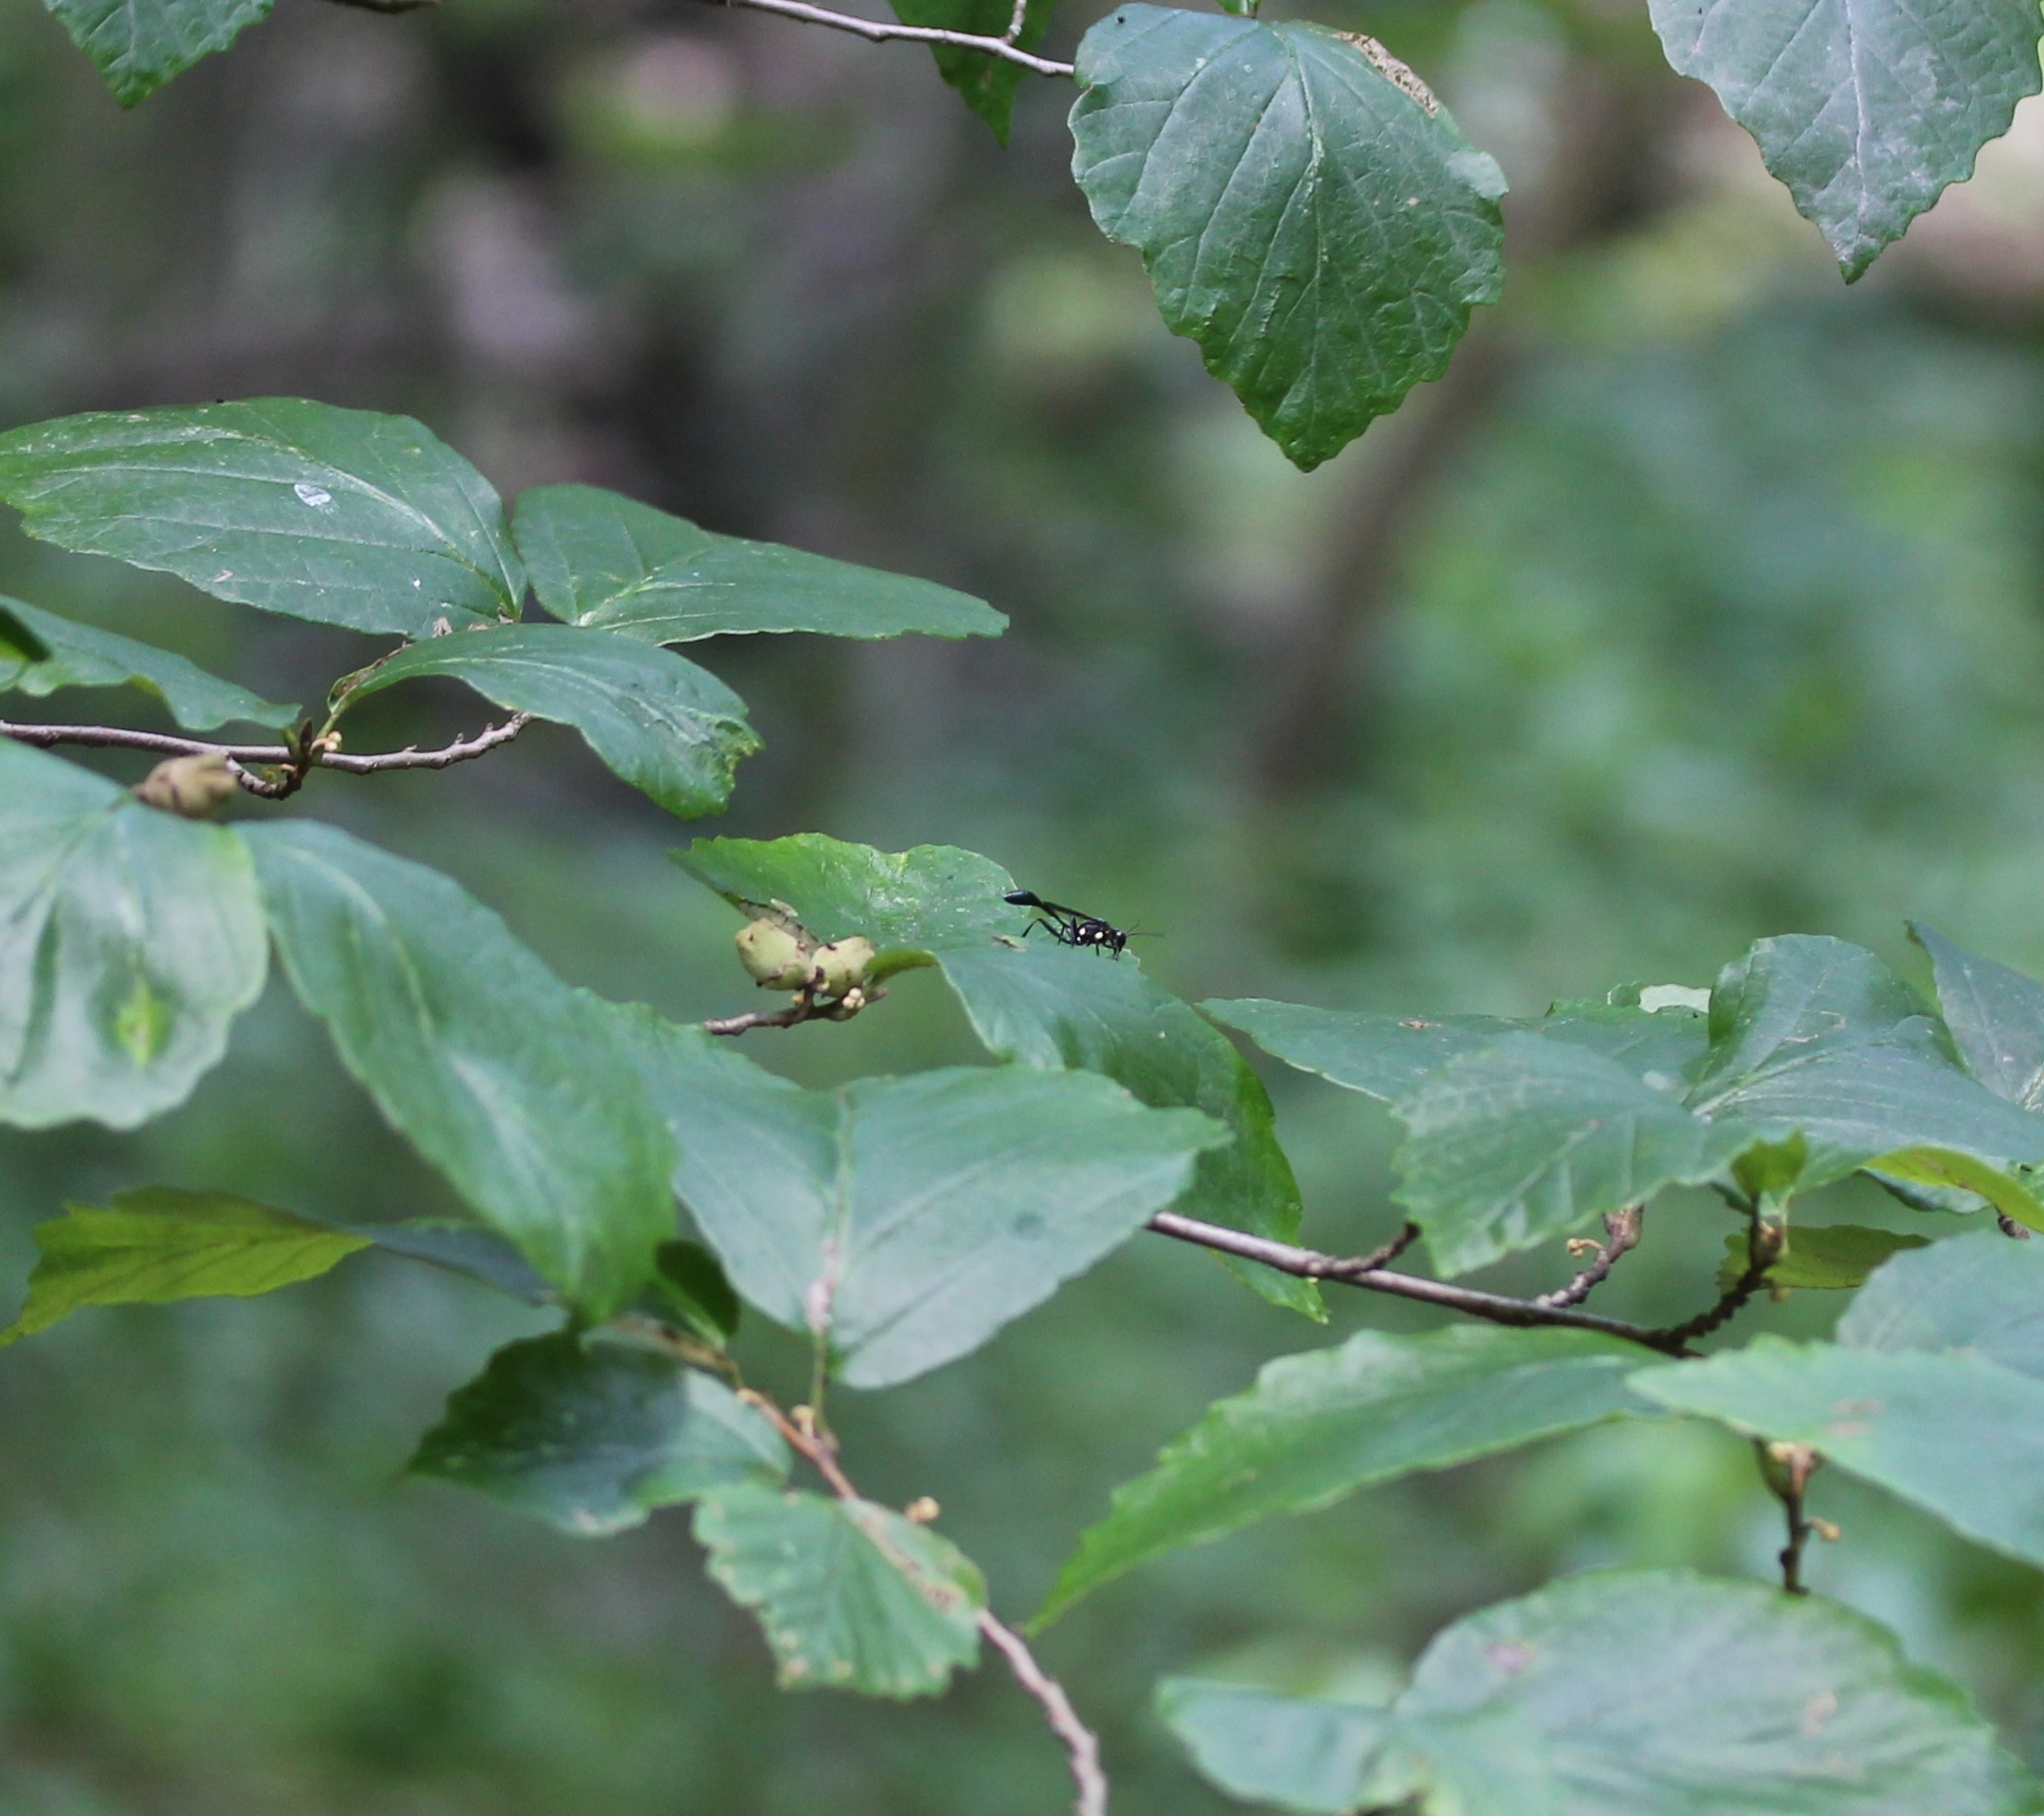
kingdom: Animalia
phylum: Arthropoda
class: Insecta
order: Hymenoptera
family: Sphecidae
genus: Eremnophila
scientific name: Eremnophila aureonotata
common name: Gold-marked thread-waisted wasp
